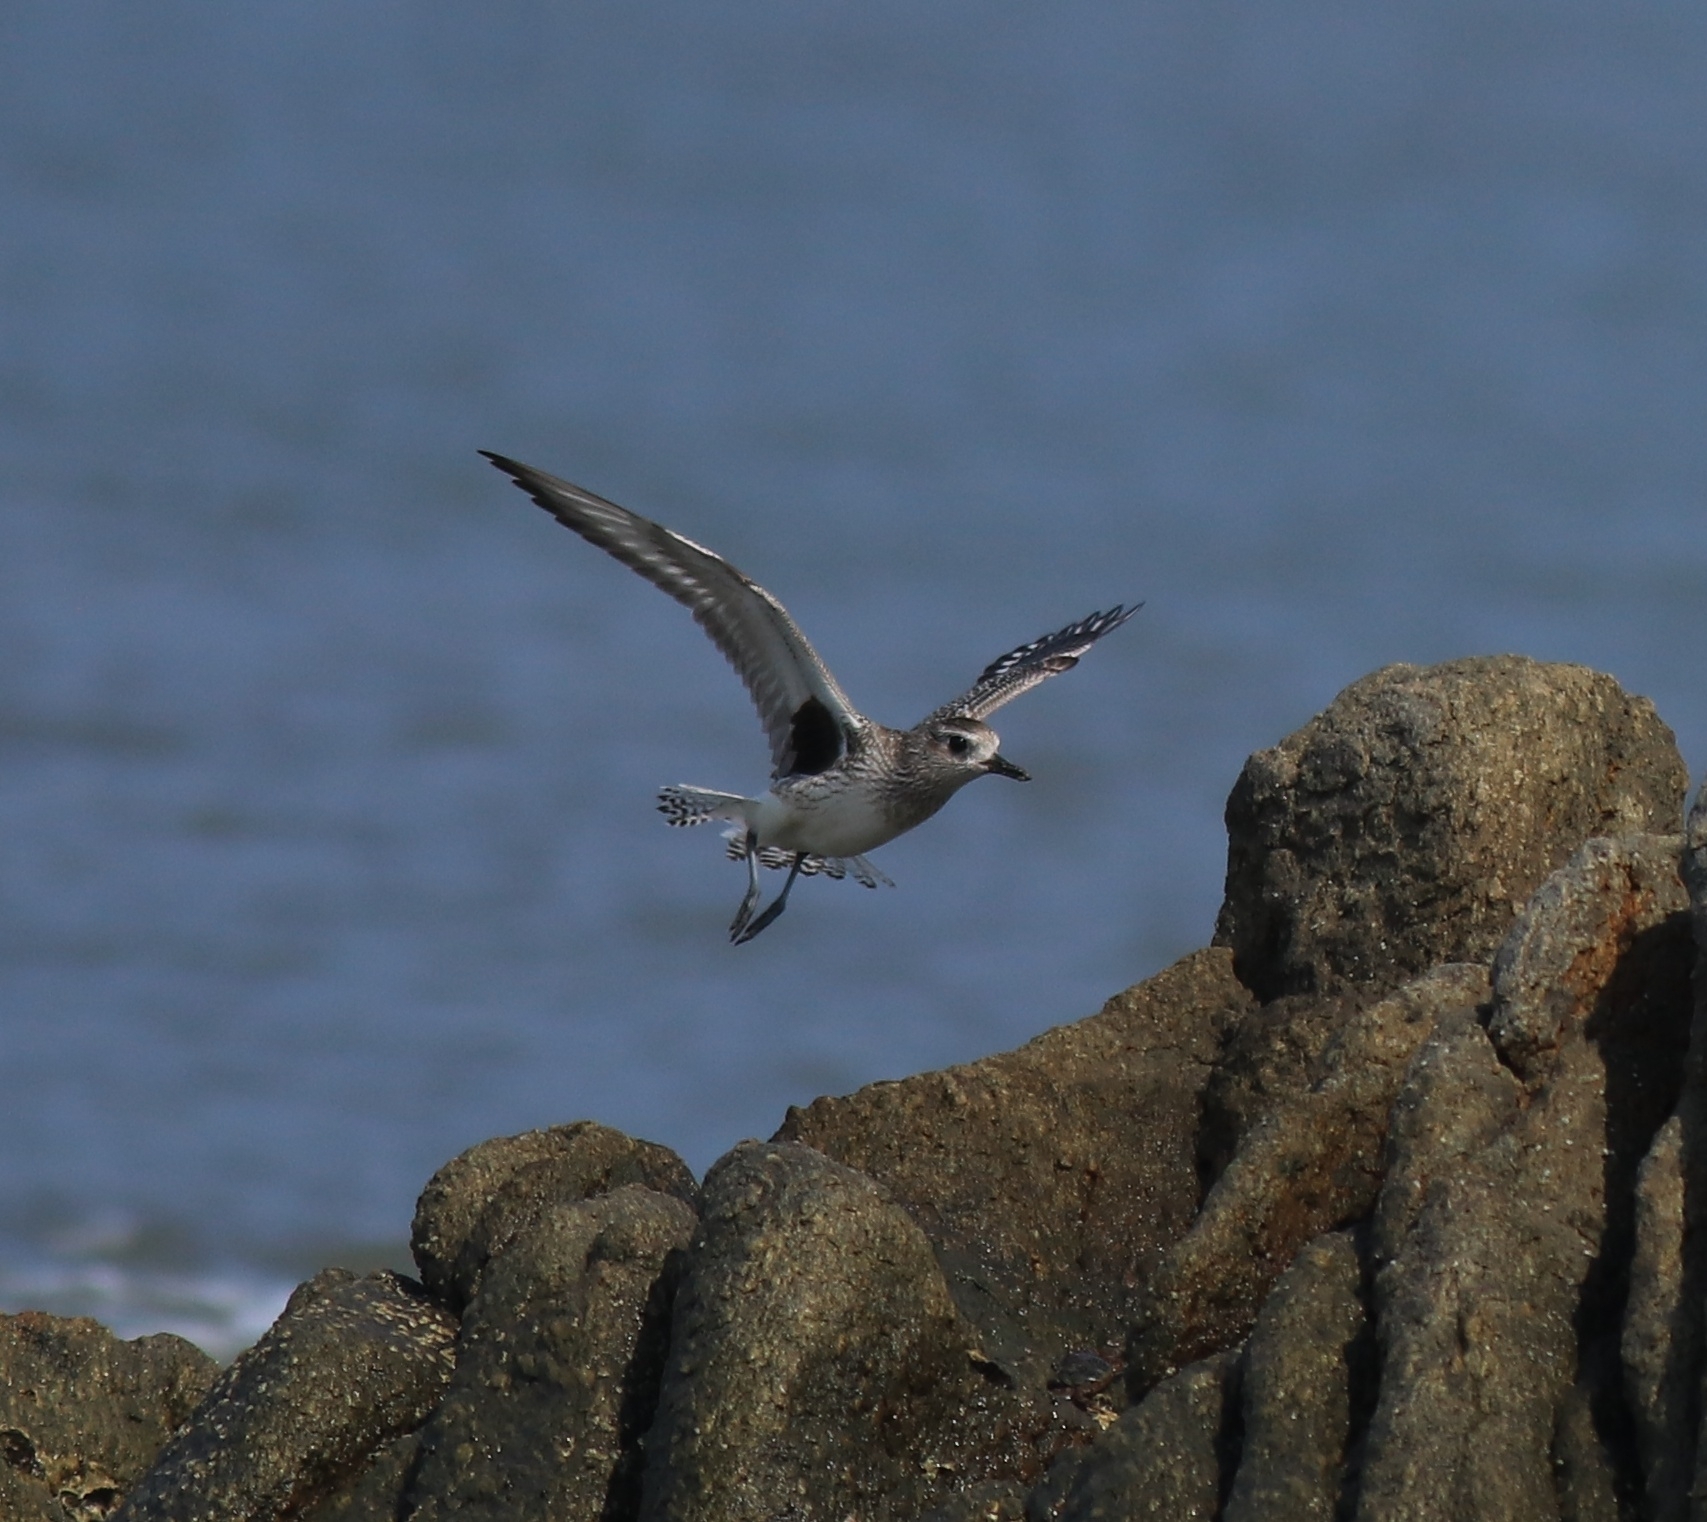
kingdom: Animalia
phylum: Chordata
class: Aves
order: Charadriiformes
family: Charadriidae
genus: Pluvialis
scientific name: Pluvialis squatarola
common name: Grey plover
